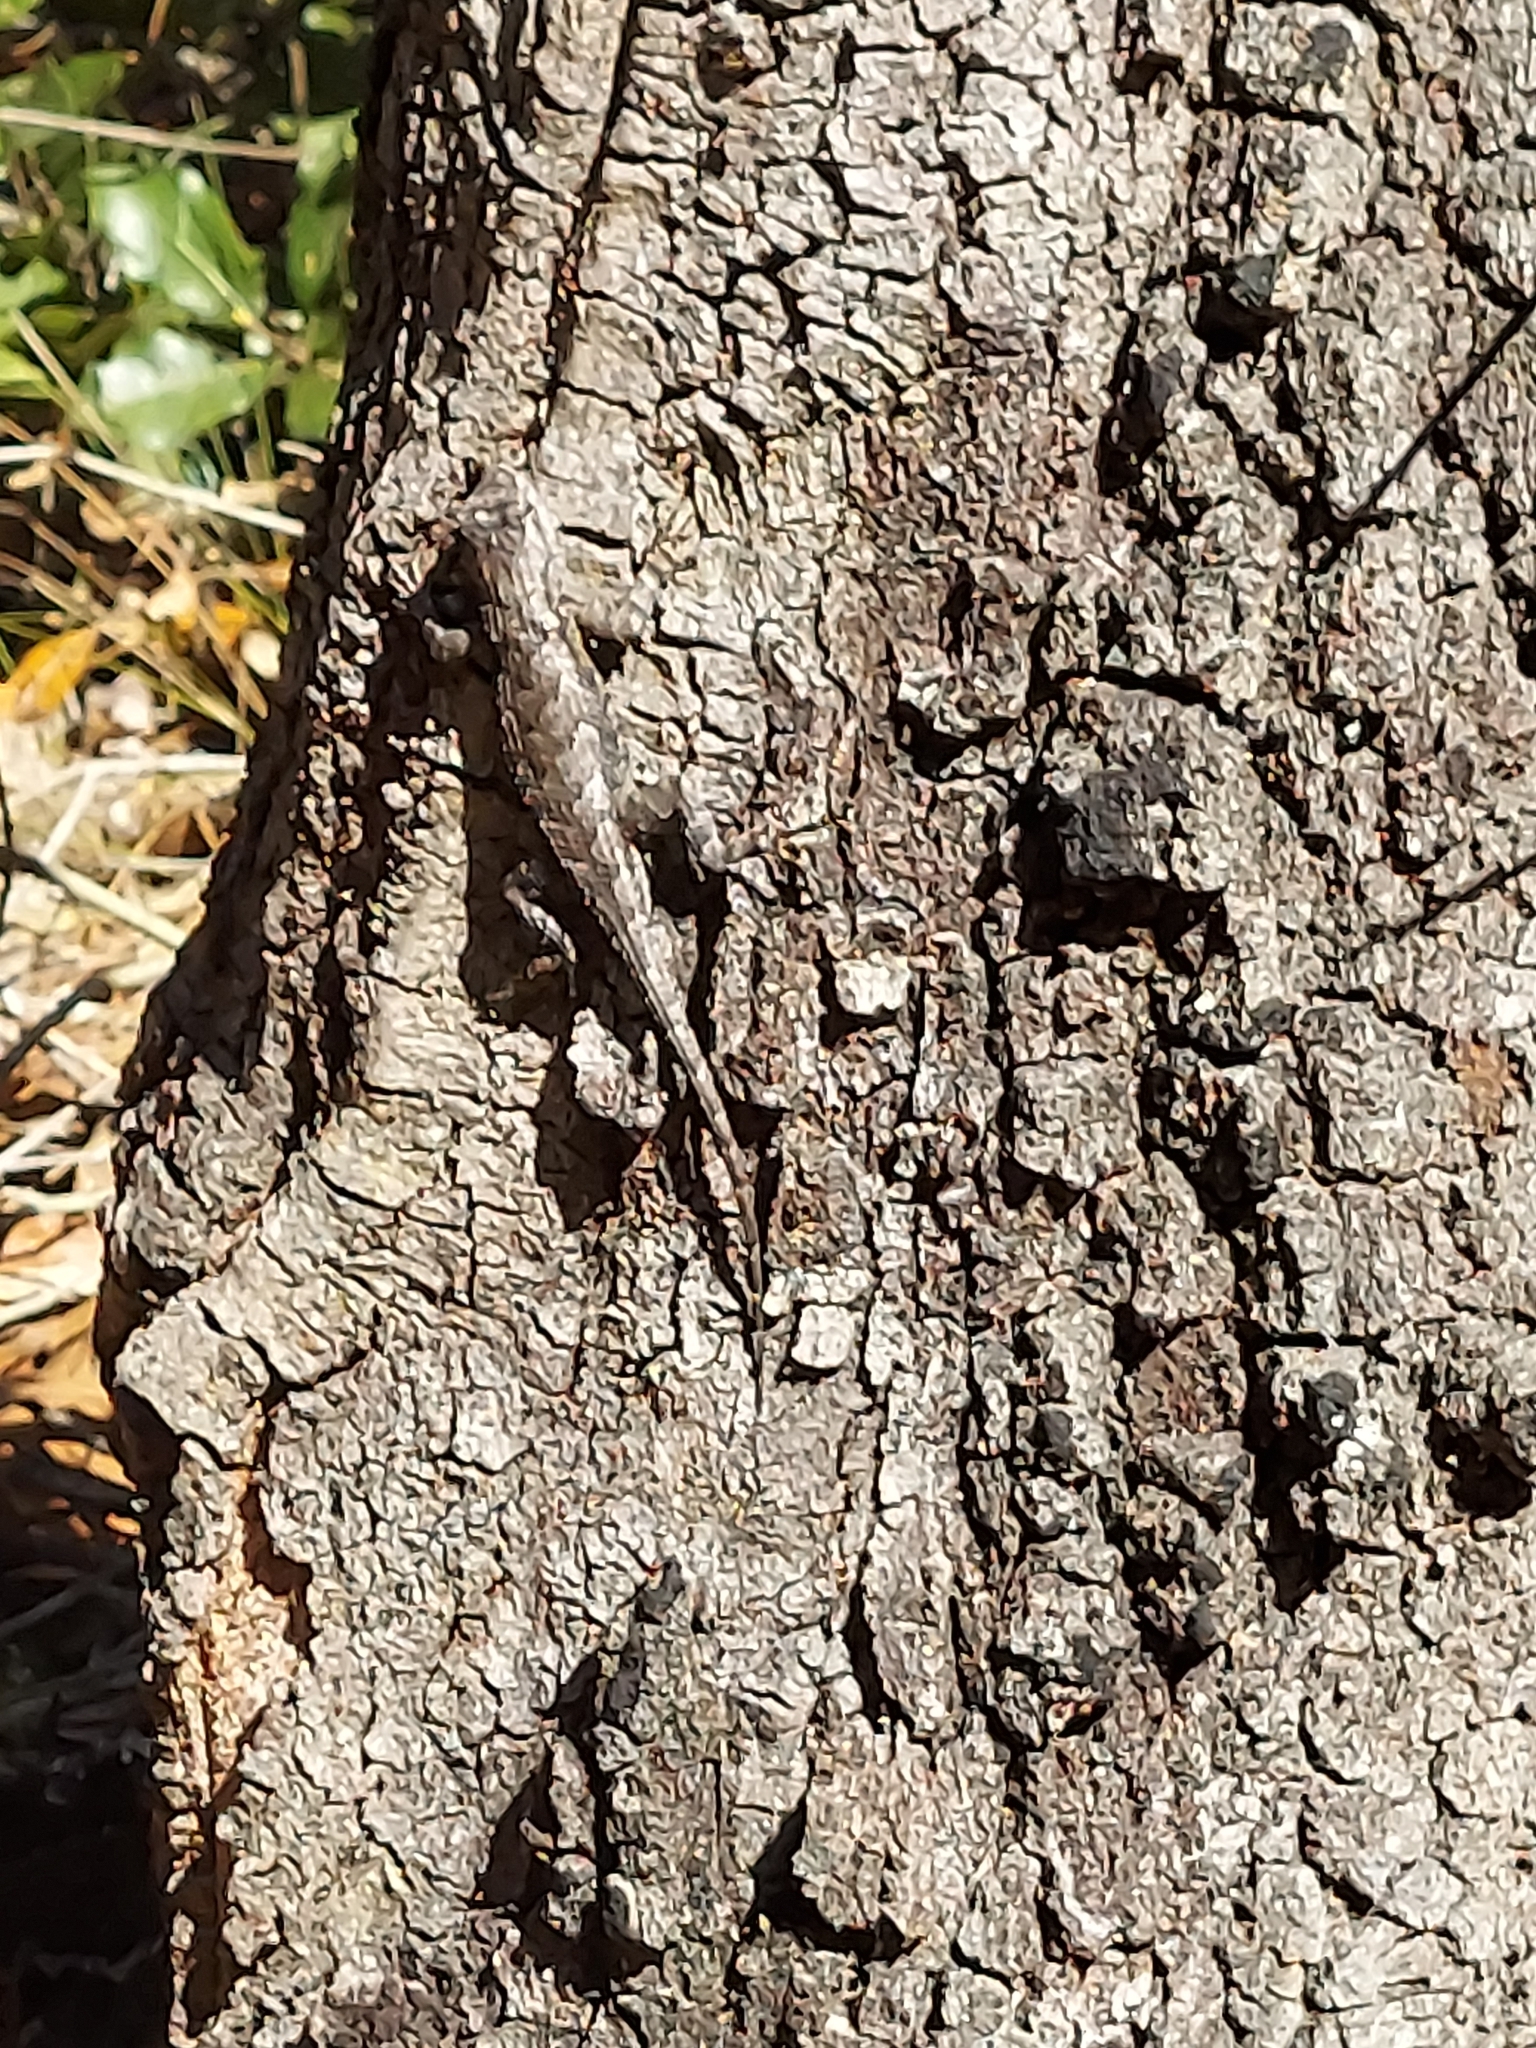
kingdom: Animalia
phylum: Chordata
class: Squamata
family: Phrynosomatidae
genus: Sceloporus
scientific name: Sceloporus undulatus
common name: Eastern fence lizard
